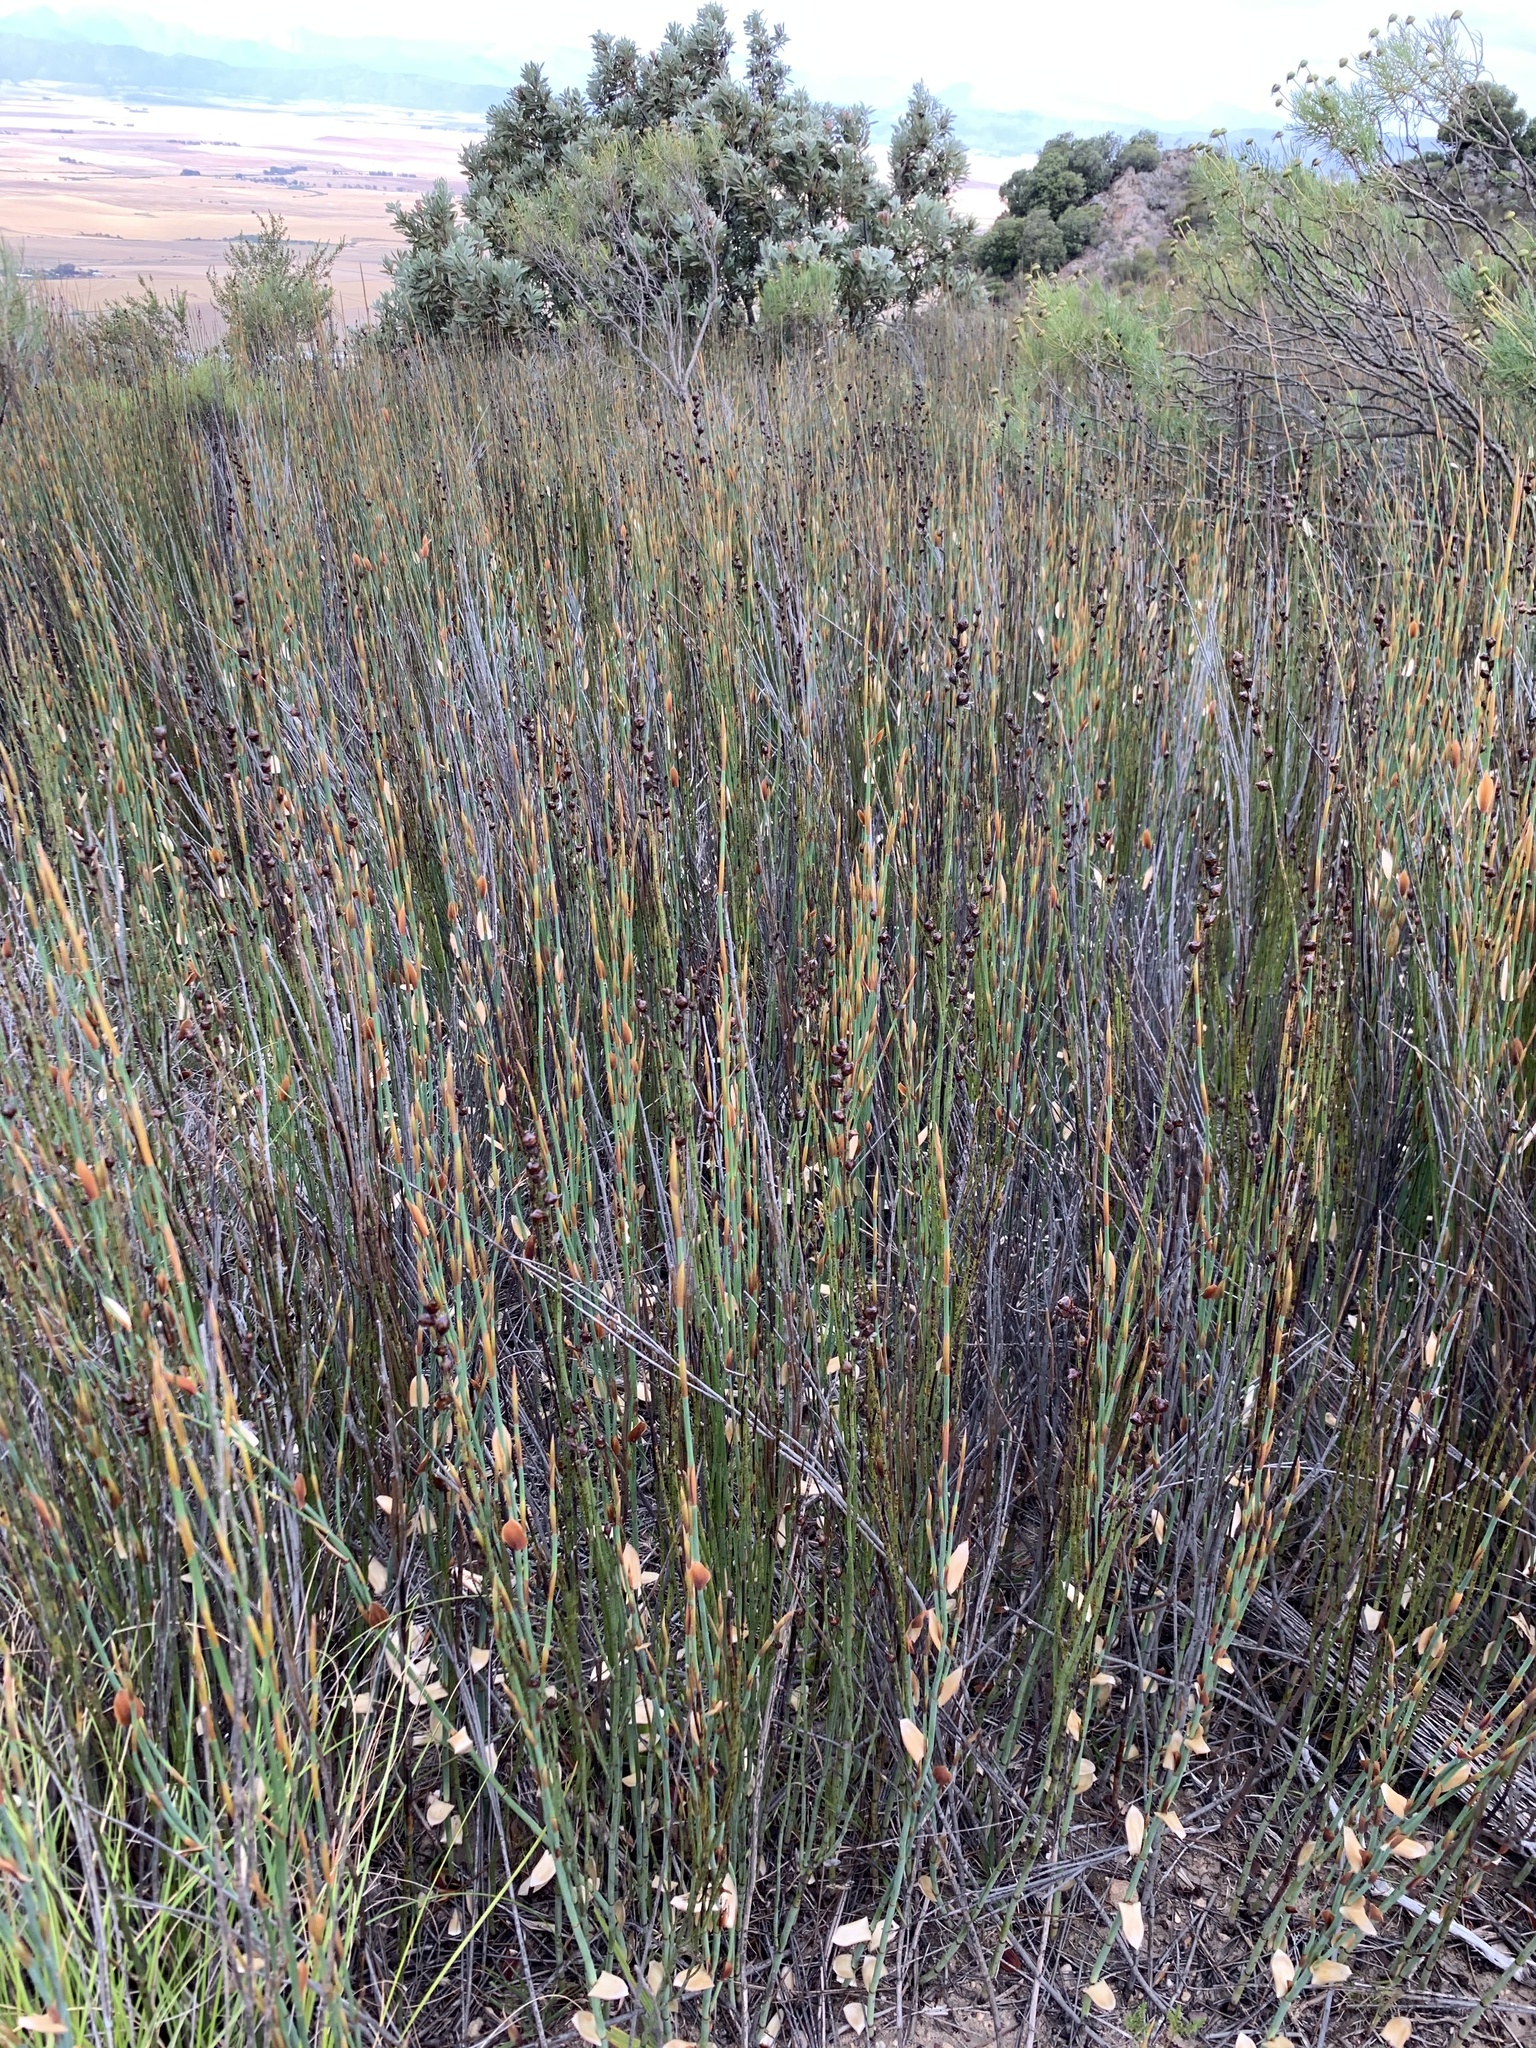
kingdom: Plantae
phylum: Tracheophyta
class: Liliopsida
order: Poales
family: Restionaceae
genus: Elegia
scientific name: Elegia macrocarpa
